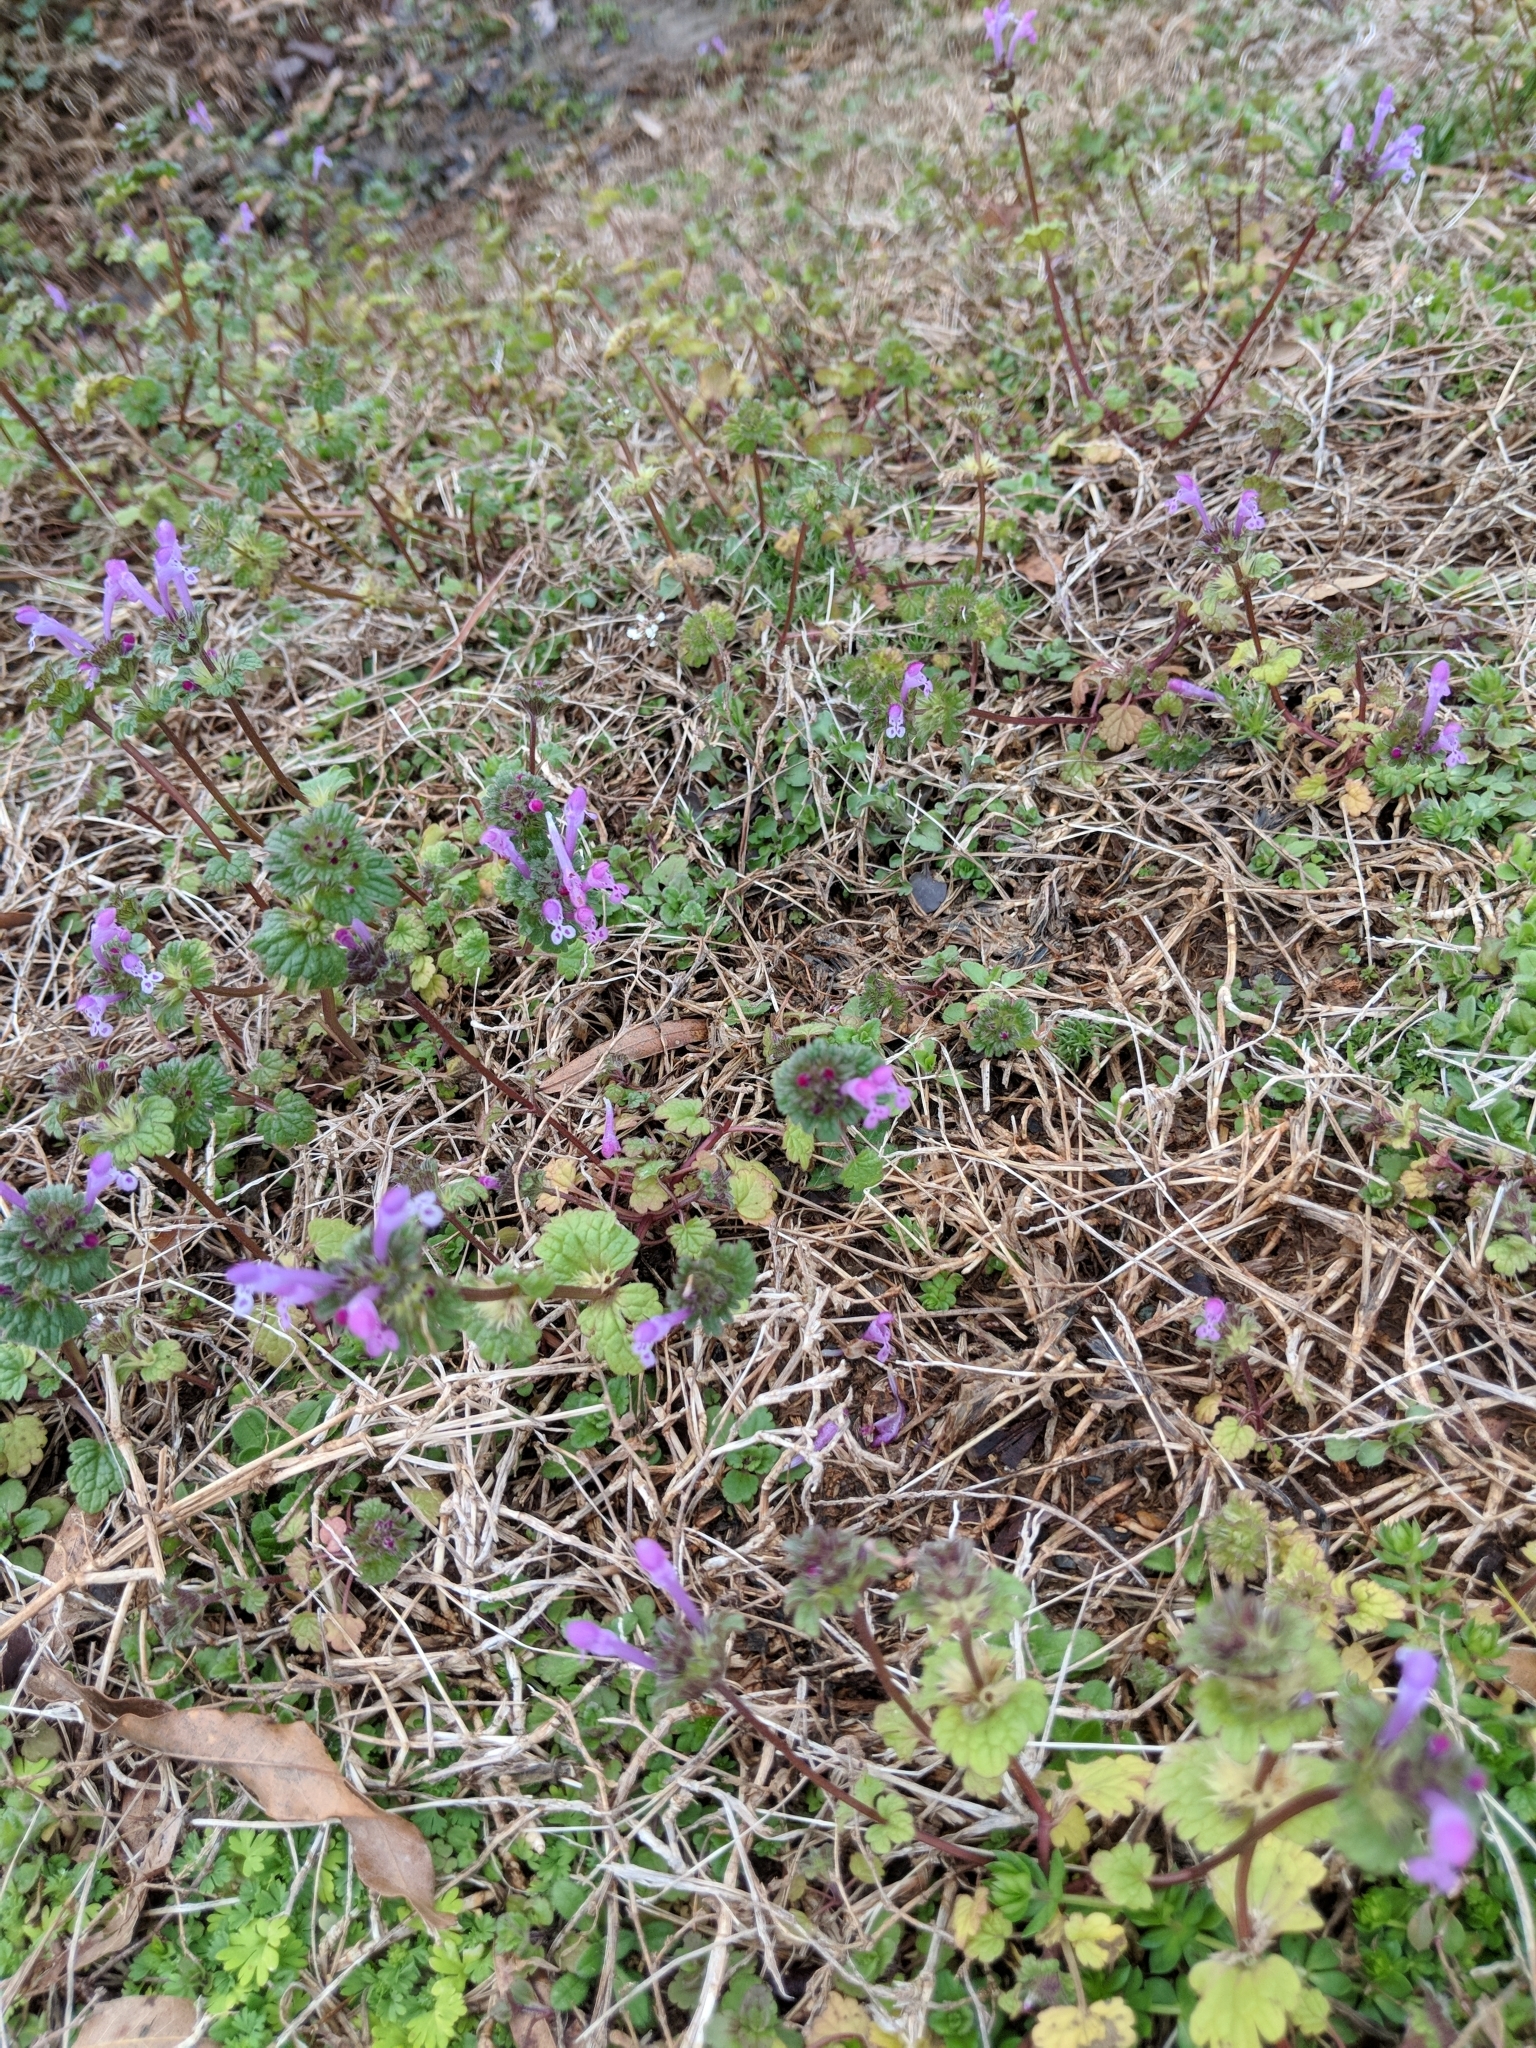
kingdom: Plantae
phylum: Tracheophyta
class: Magnoliopsida
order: Lamiales
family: Lamiaceae
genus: Lamium
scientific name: Lamium amplexicaule
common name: Henbit dead-nettle
